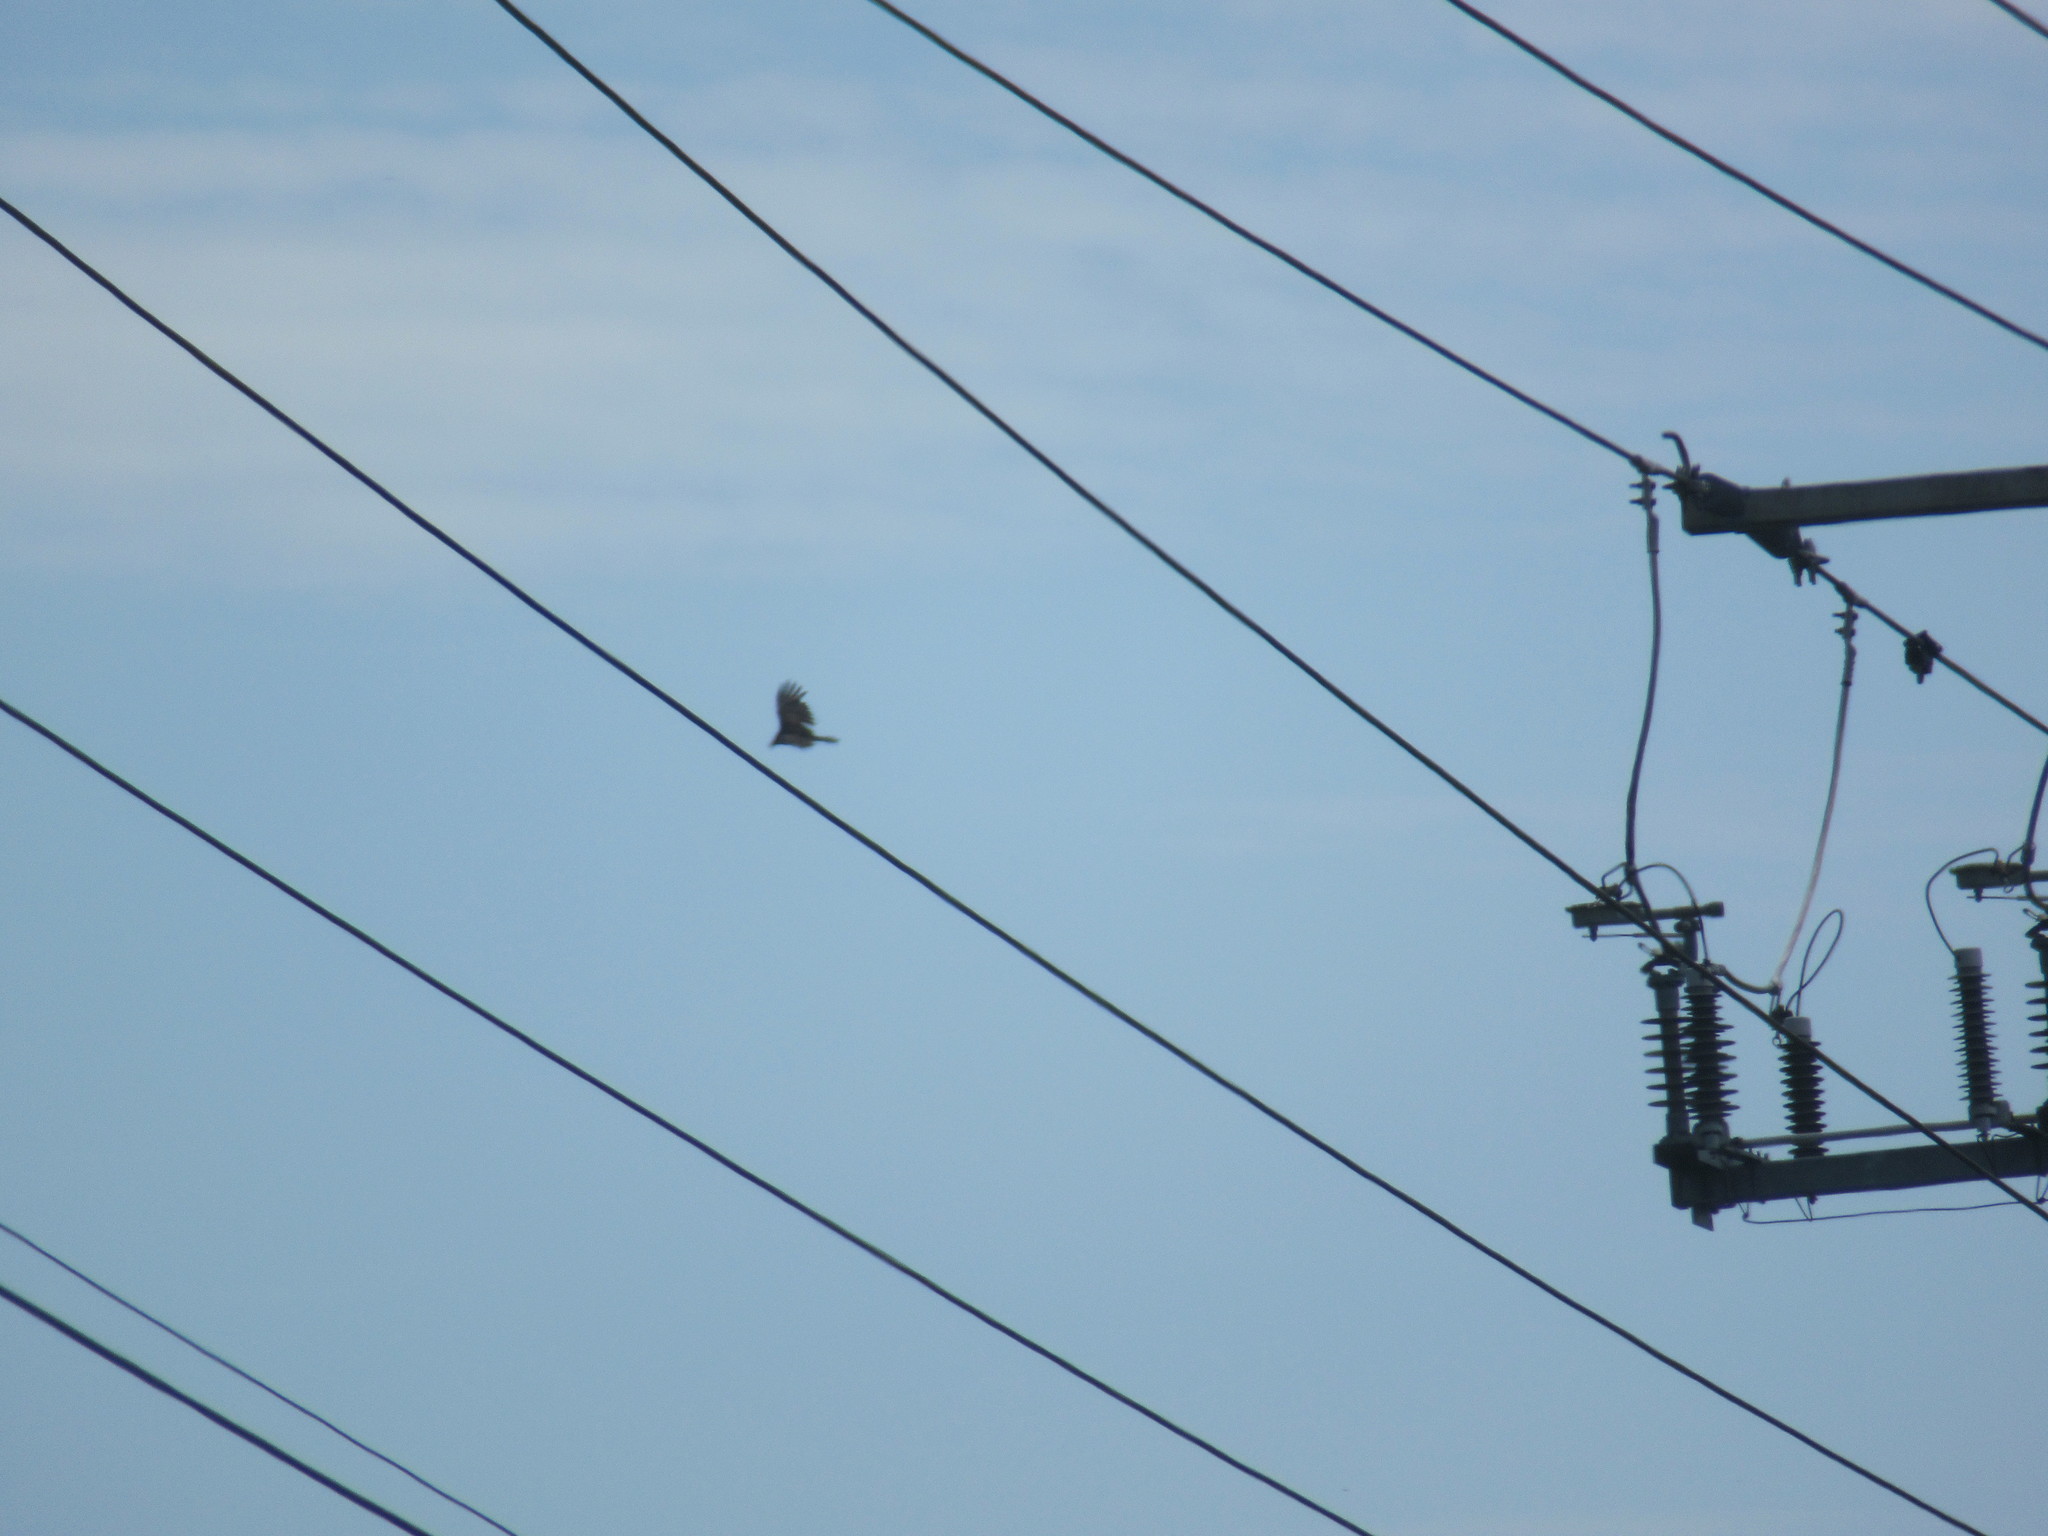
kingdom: Animalia
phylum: Chordata
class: Aves
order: Accipitriformes
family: Cathartidae
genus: Cathartes
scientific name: Cathartes aura
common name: Turkey vulture
